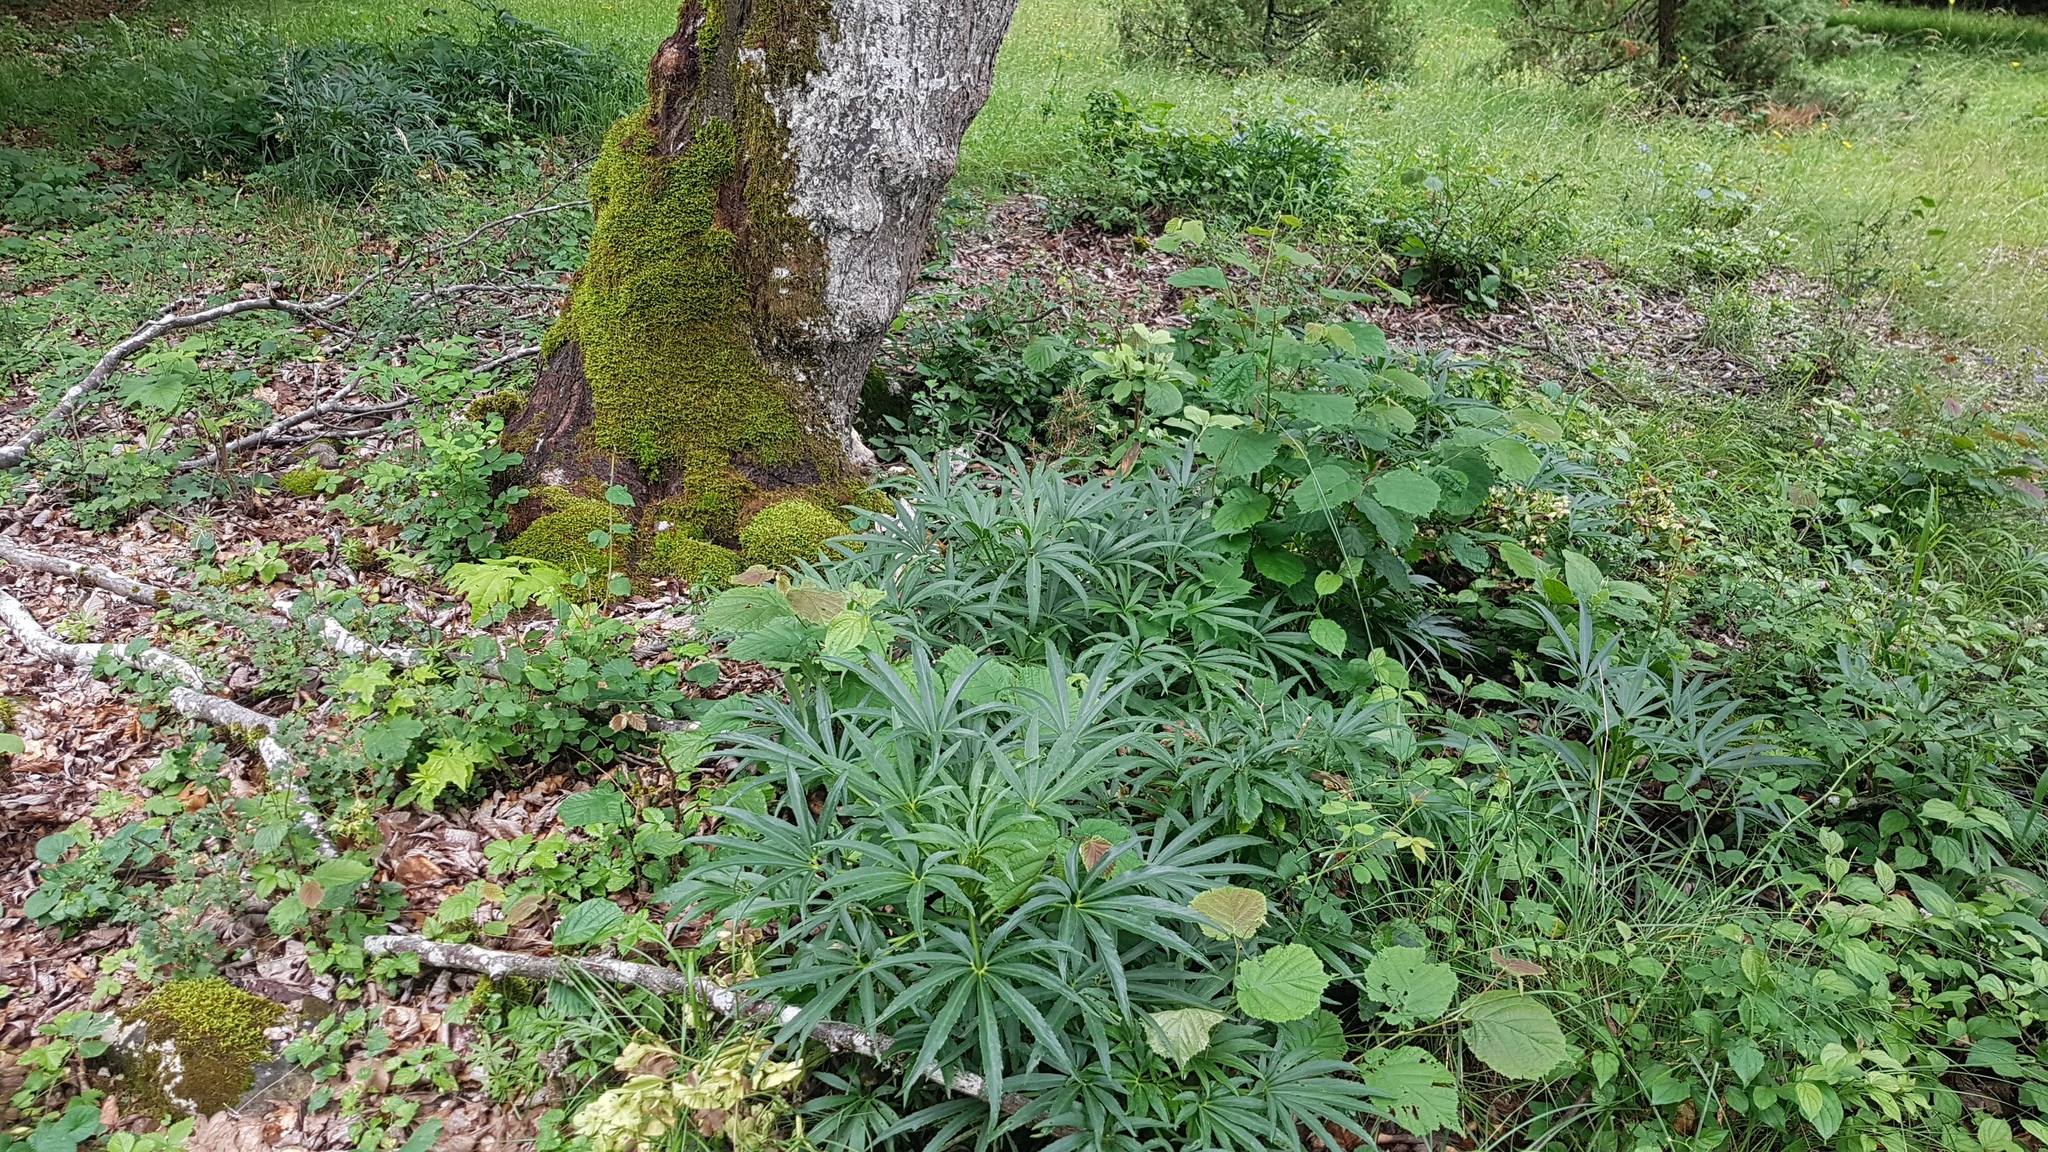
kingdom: Plantae
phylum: Tracheophyta
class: Magnoliopsida
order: Ranunculales
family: Ranunculaceae
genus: Helleborus
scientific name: Helleborus foetidus
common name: Stinking hellebore
